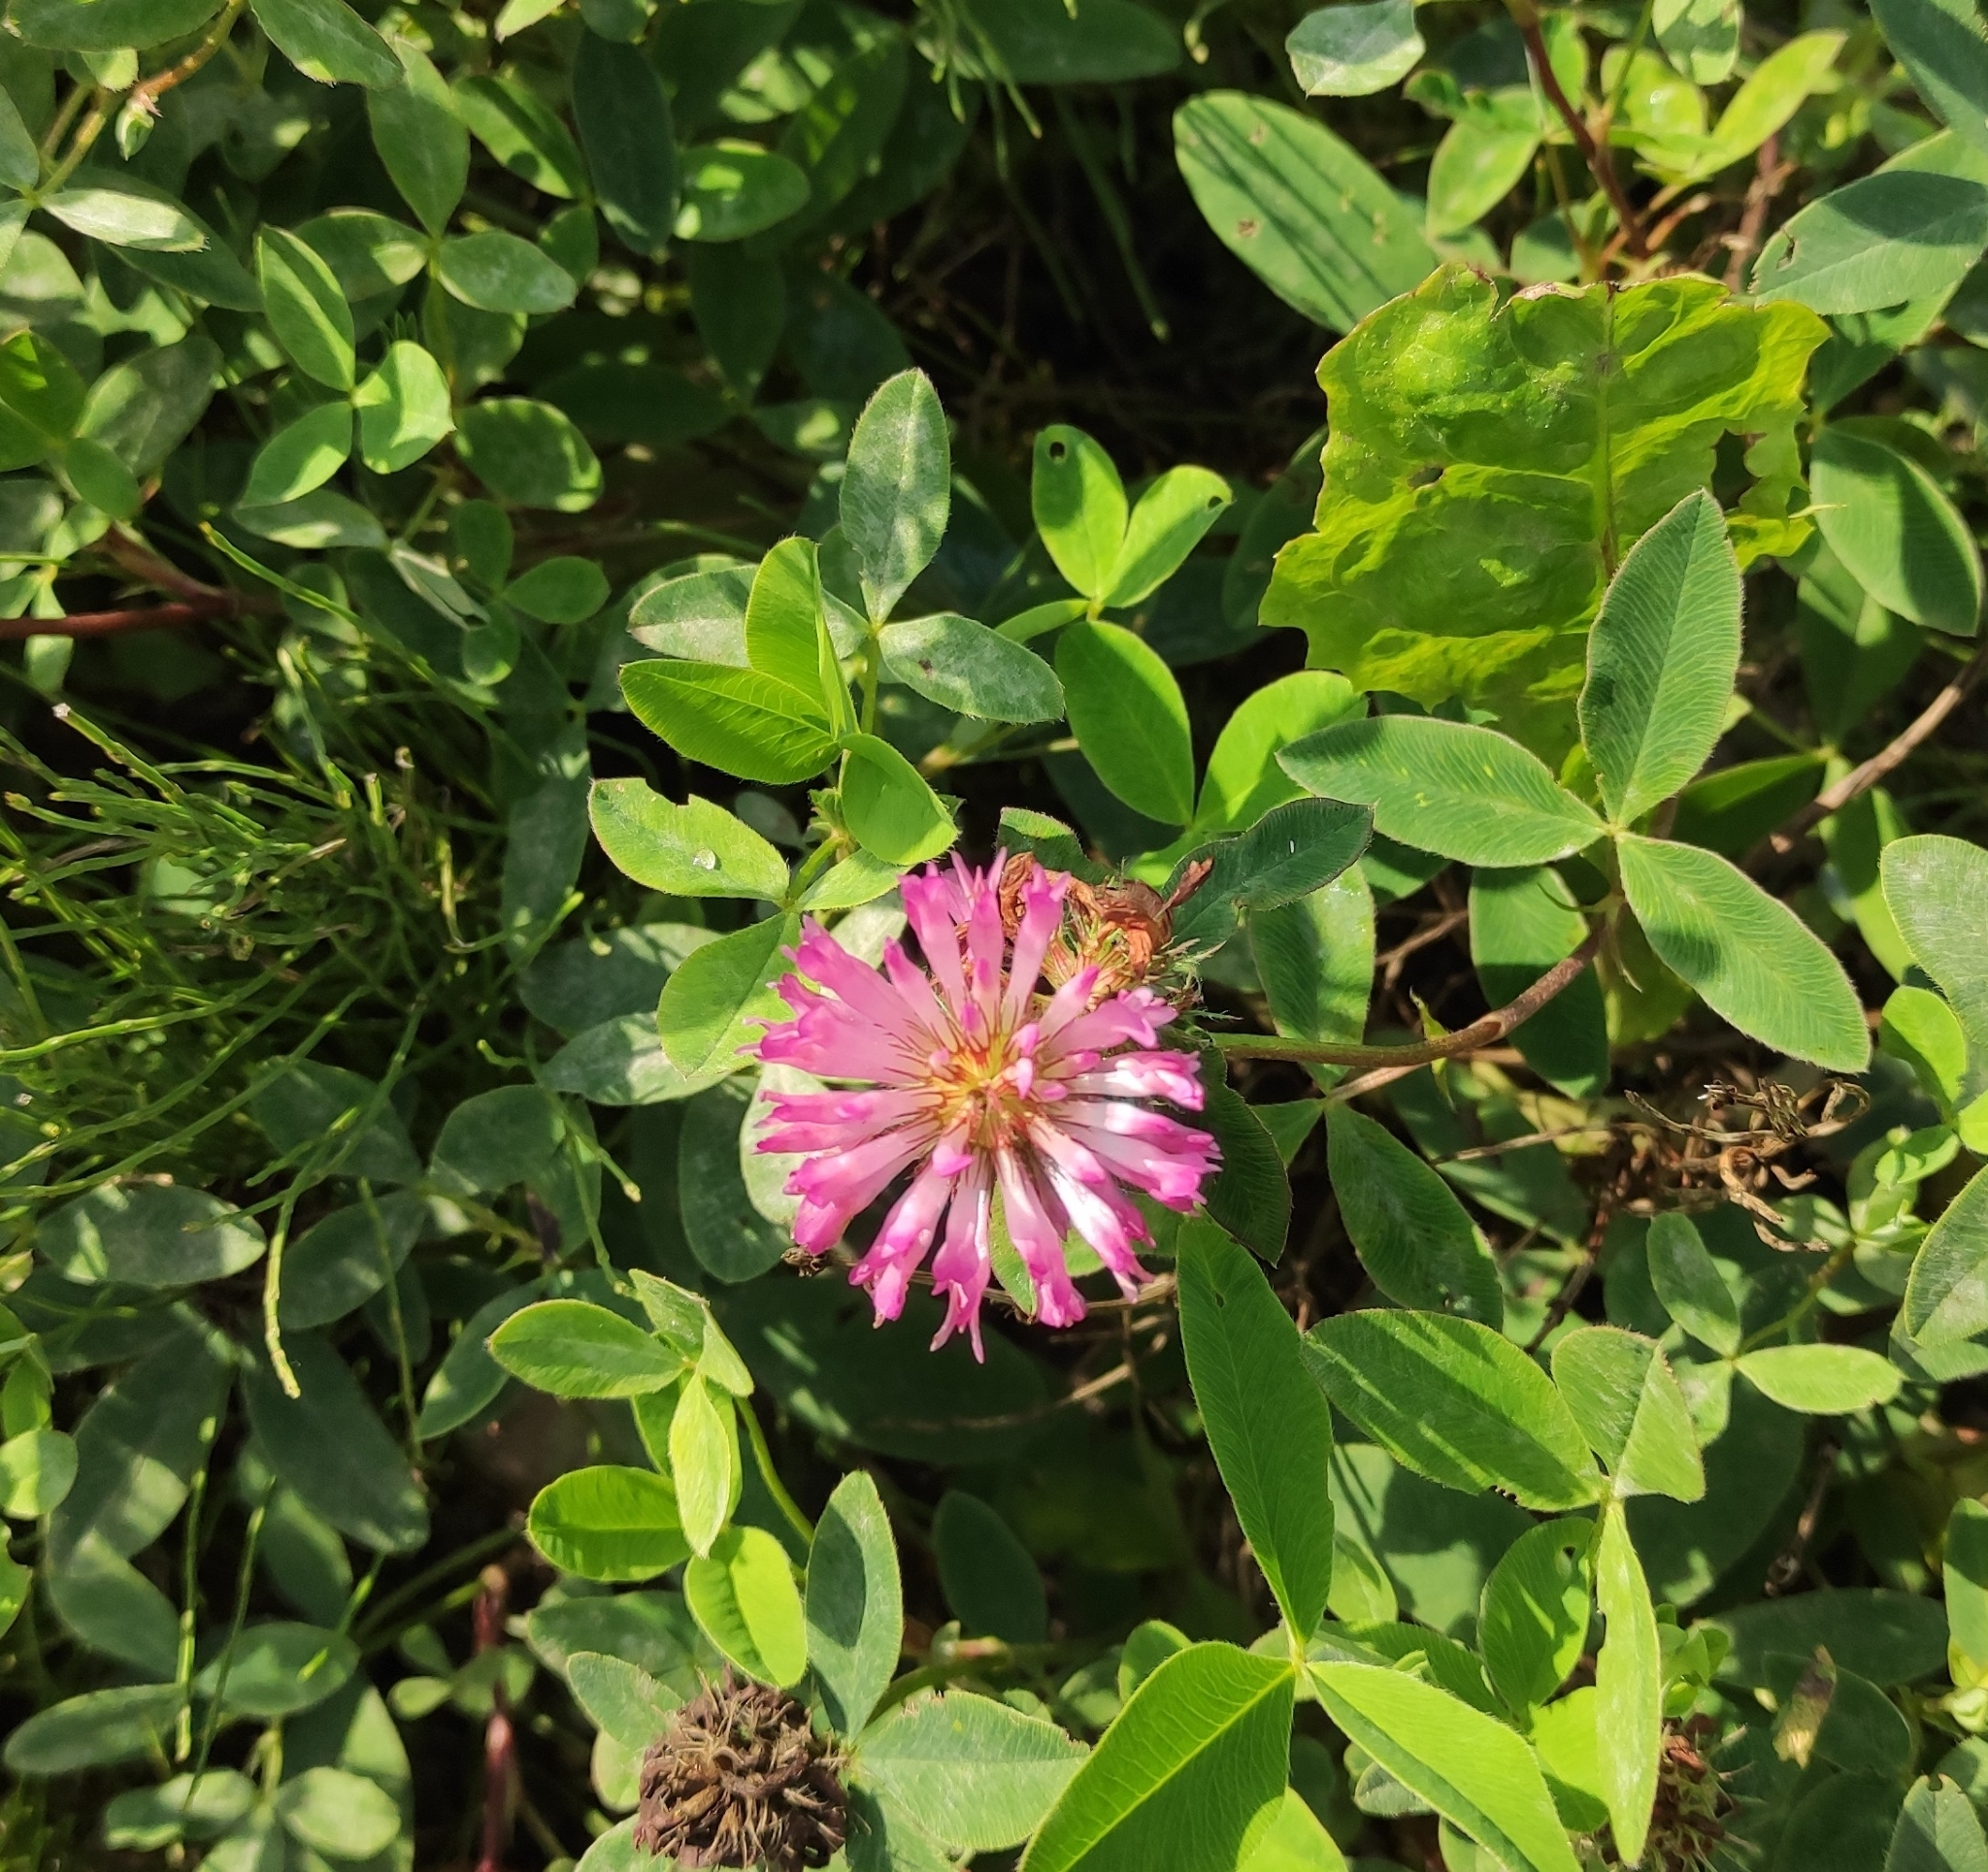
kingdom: Plantae
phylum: Tracheophyta
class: Magnoliopsida
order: Fabales
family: Fabaceae
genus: Trifolium
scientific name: Trifolium medium
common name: Zigzag clover
